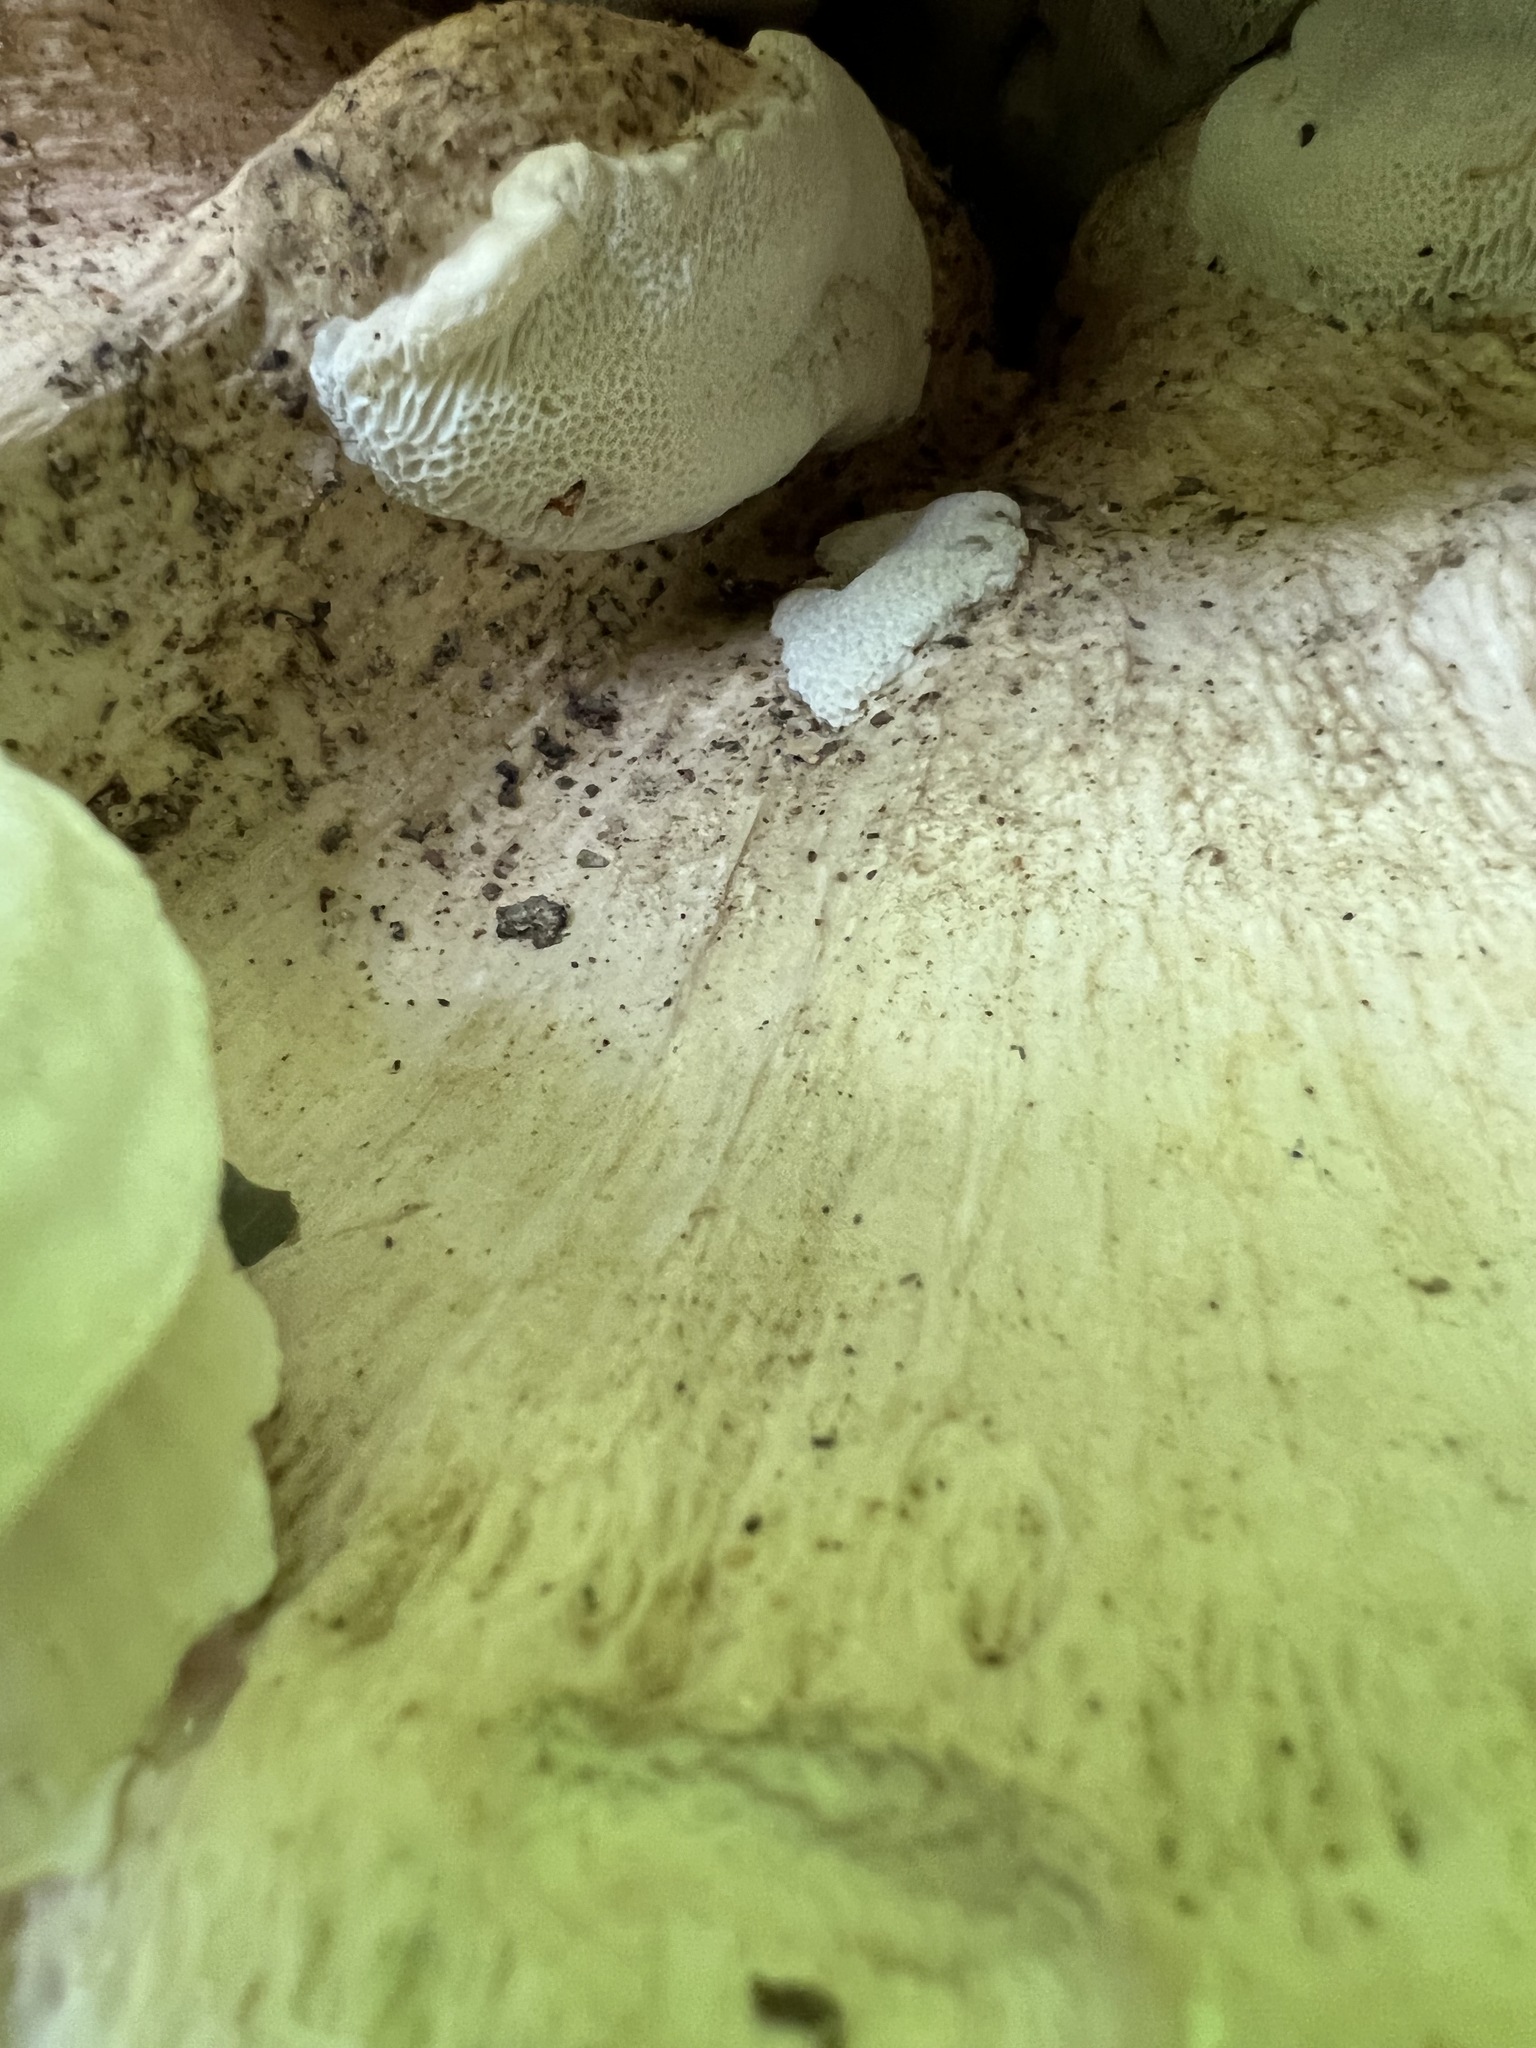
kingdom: Fungi
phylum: Basidiomycota
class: Agaricomycetes
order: Russulales
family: Bondarzewiaceae
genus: Bondarzewia
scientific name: Bondarzewia berkeleyi
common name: Berkeley's polypore
